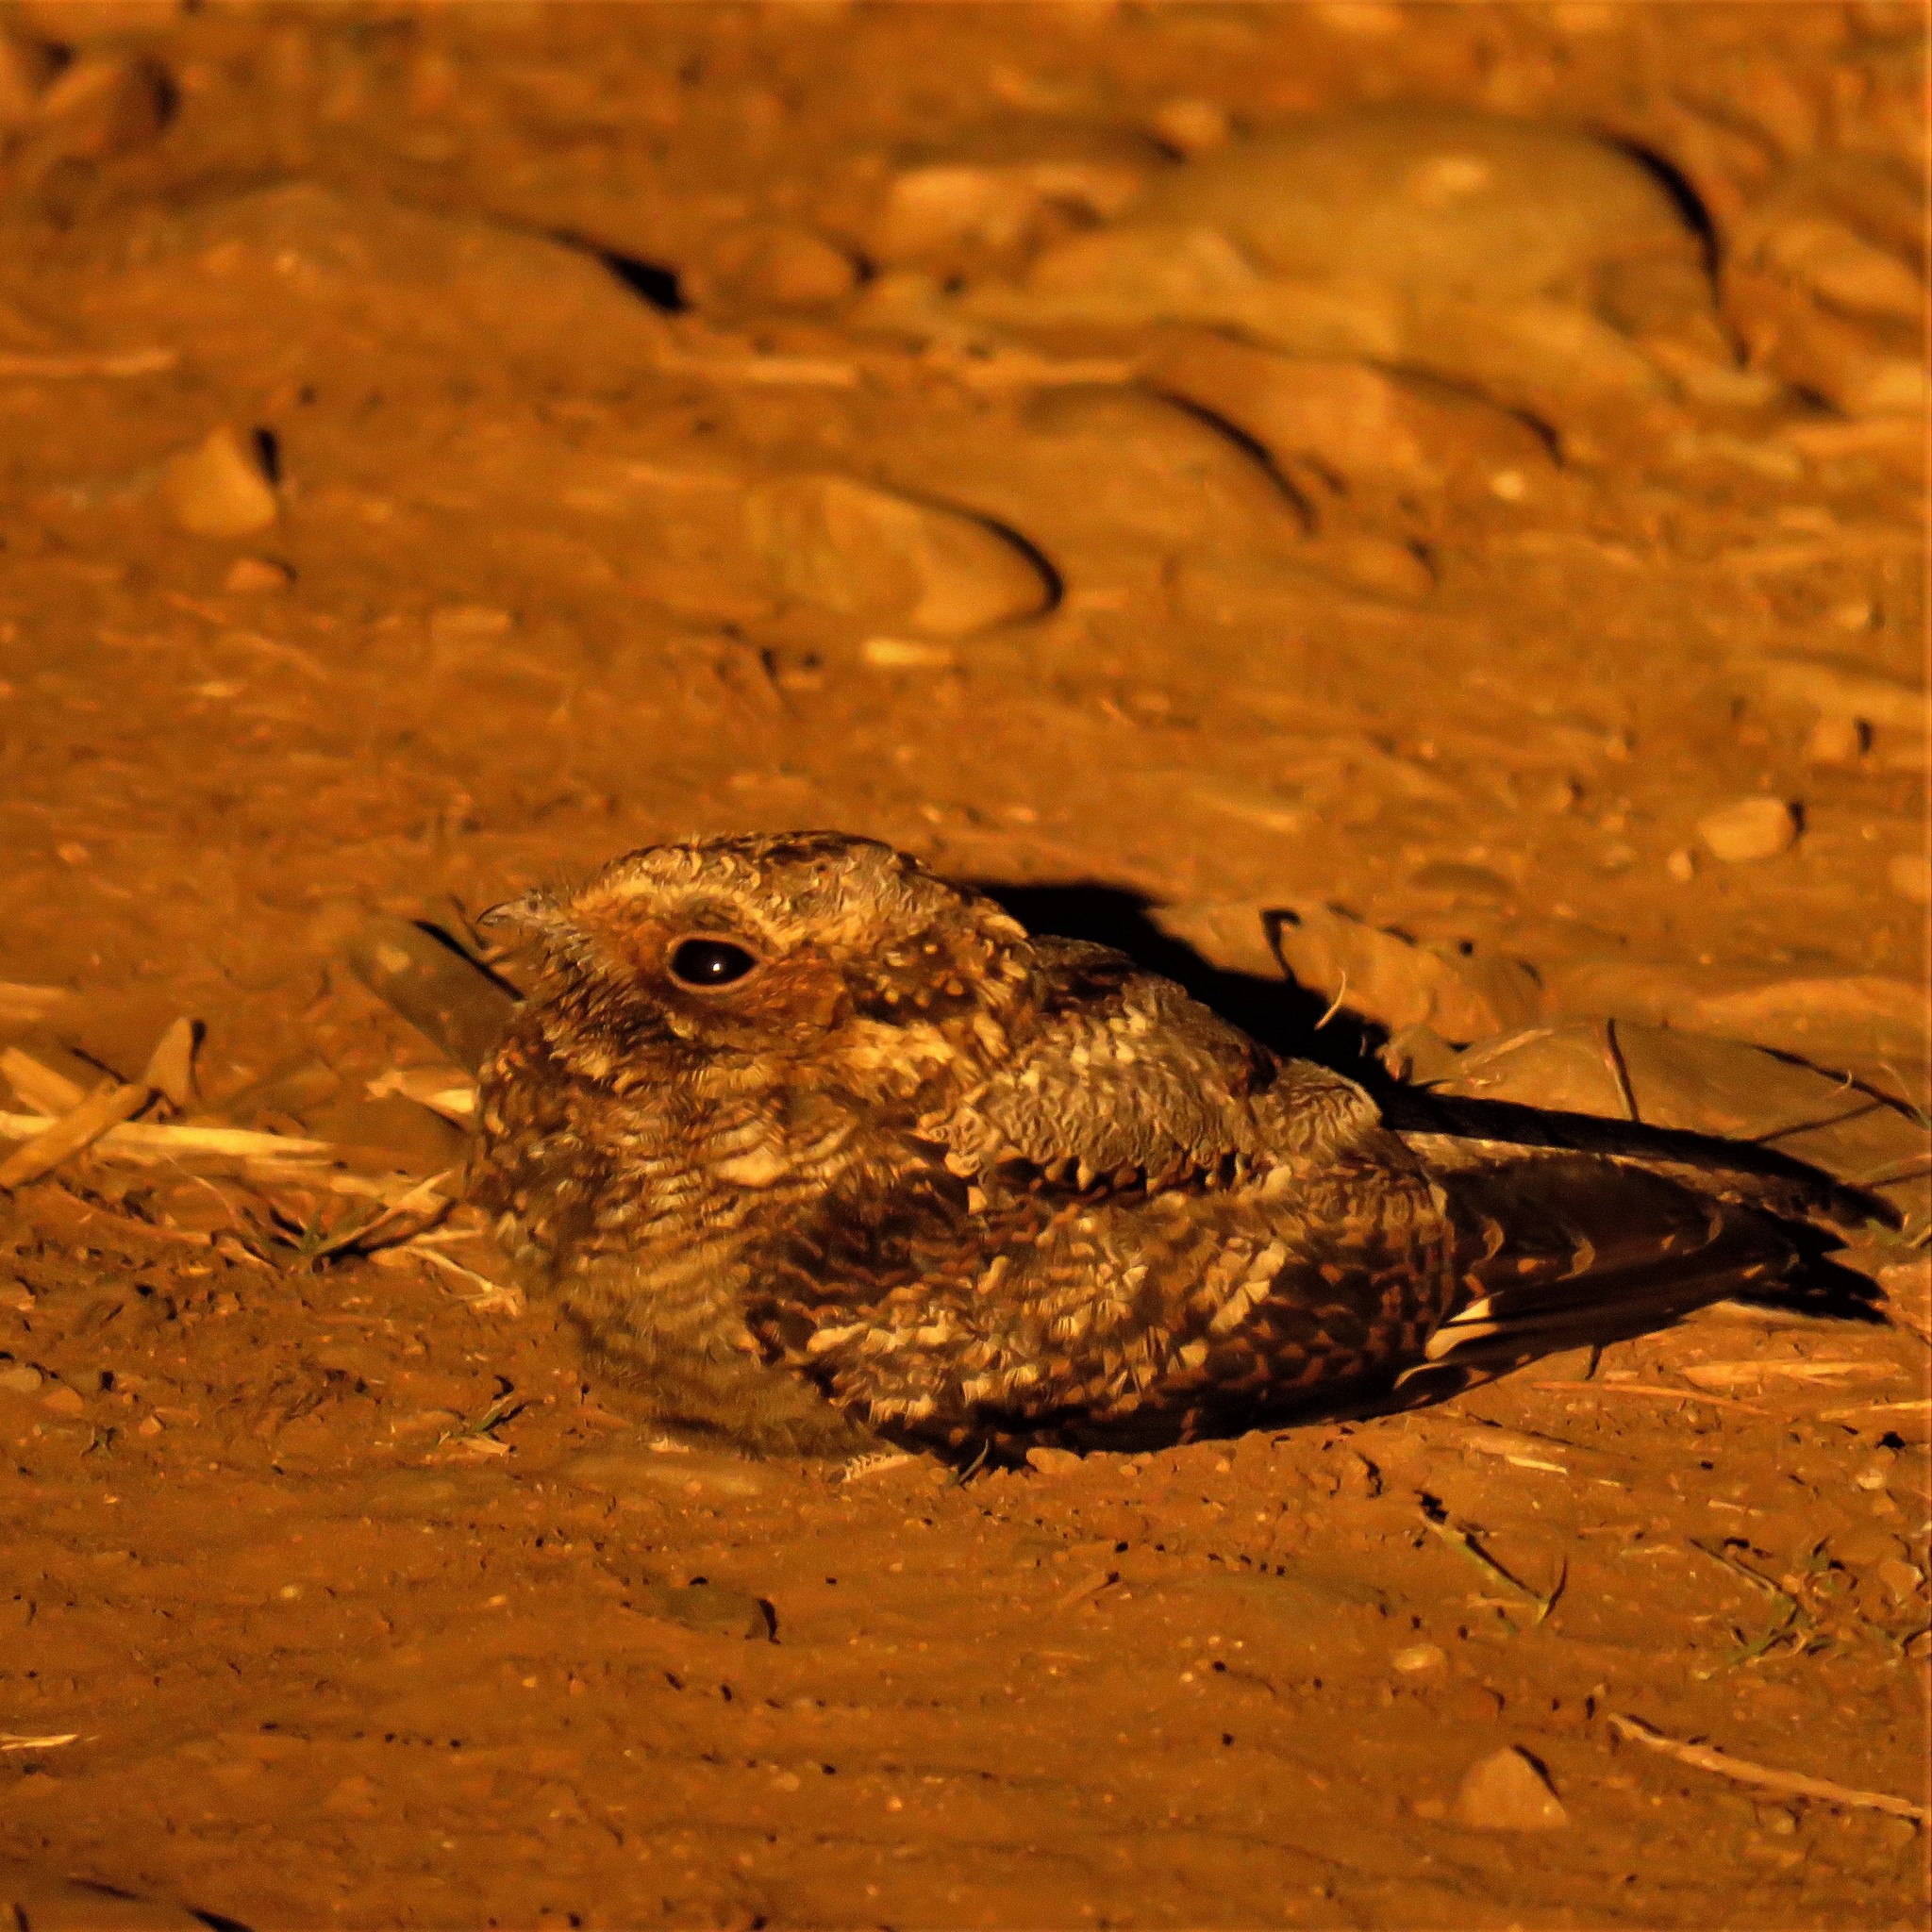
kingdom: Animalia
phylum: Chordata
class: Aves
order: Caprimulgiformes
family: Caprimulgidae
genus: Caprimulgus
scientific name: Caprimulgus pectoralis
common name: Fiery-necked nightjar
